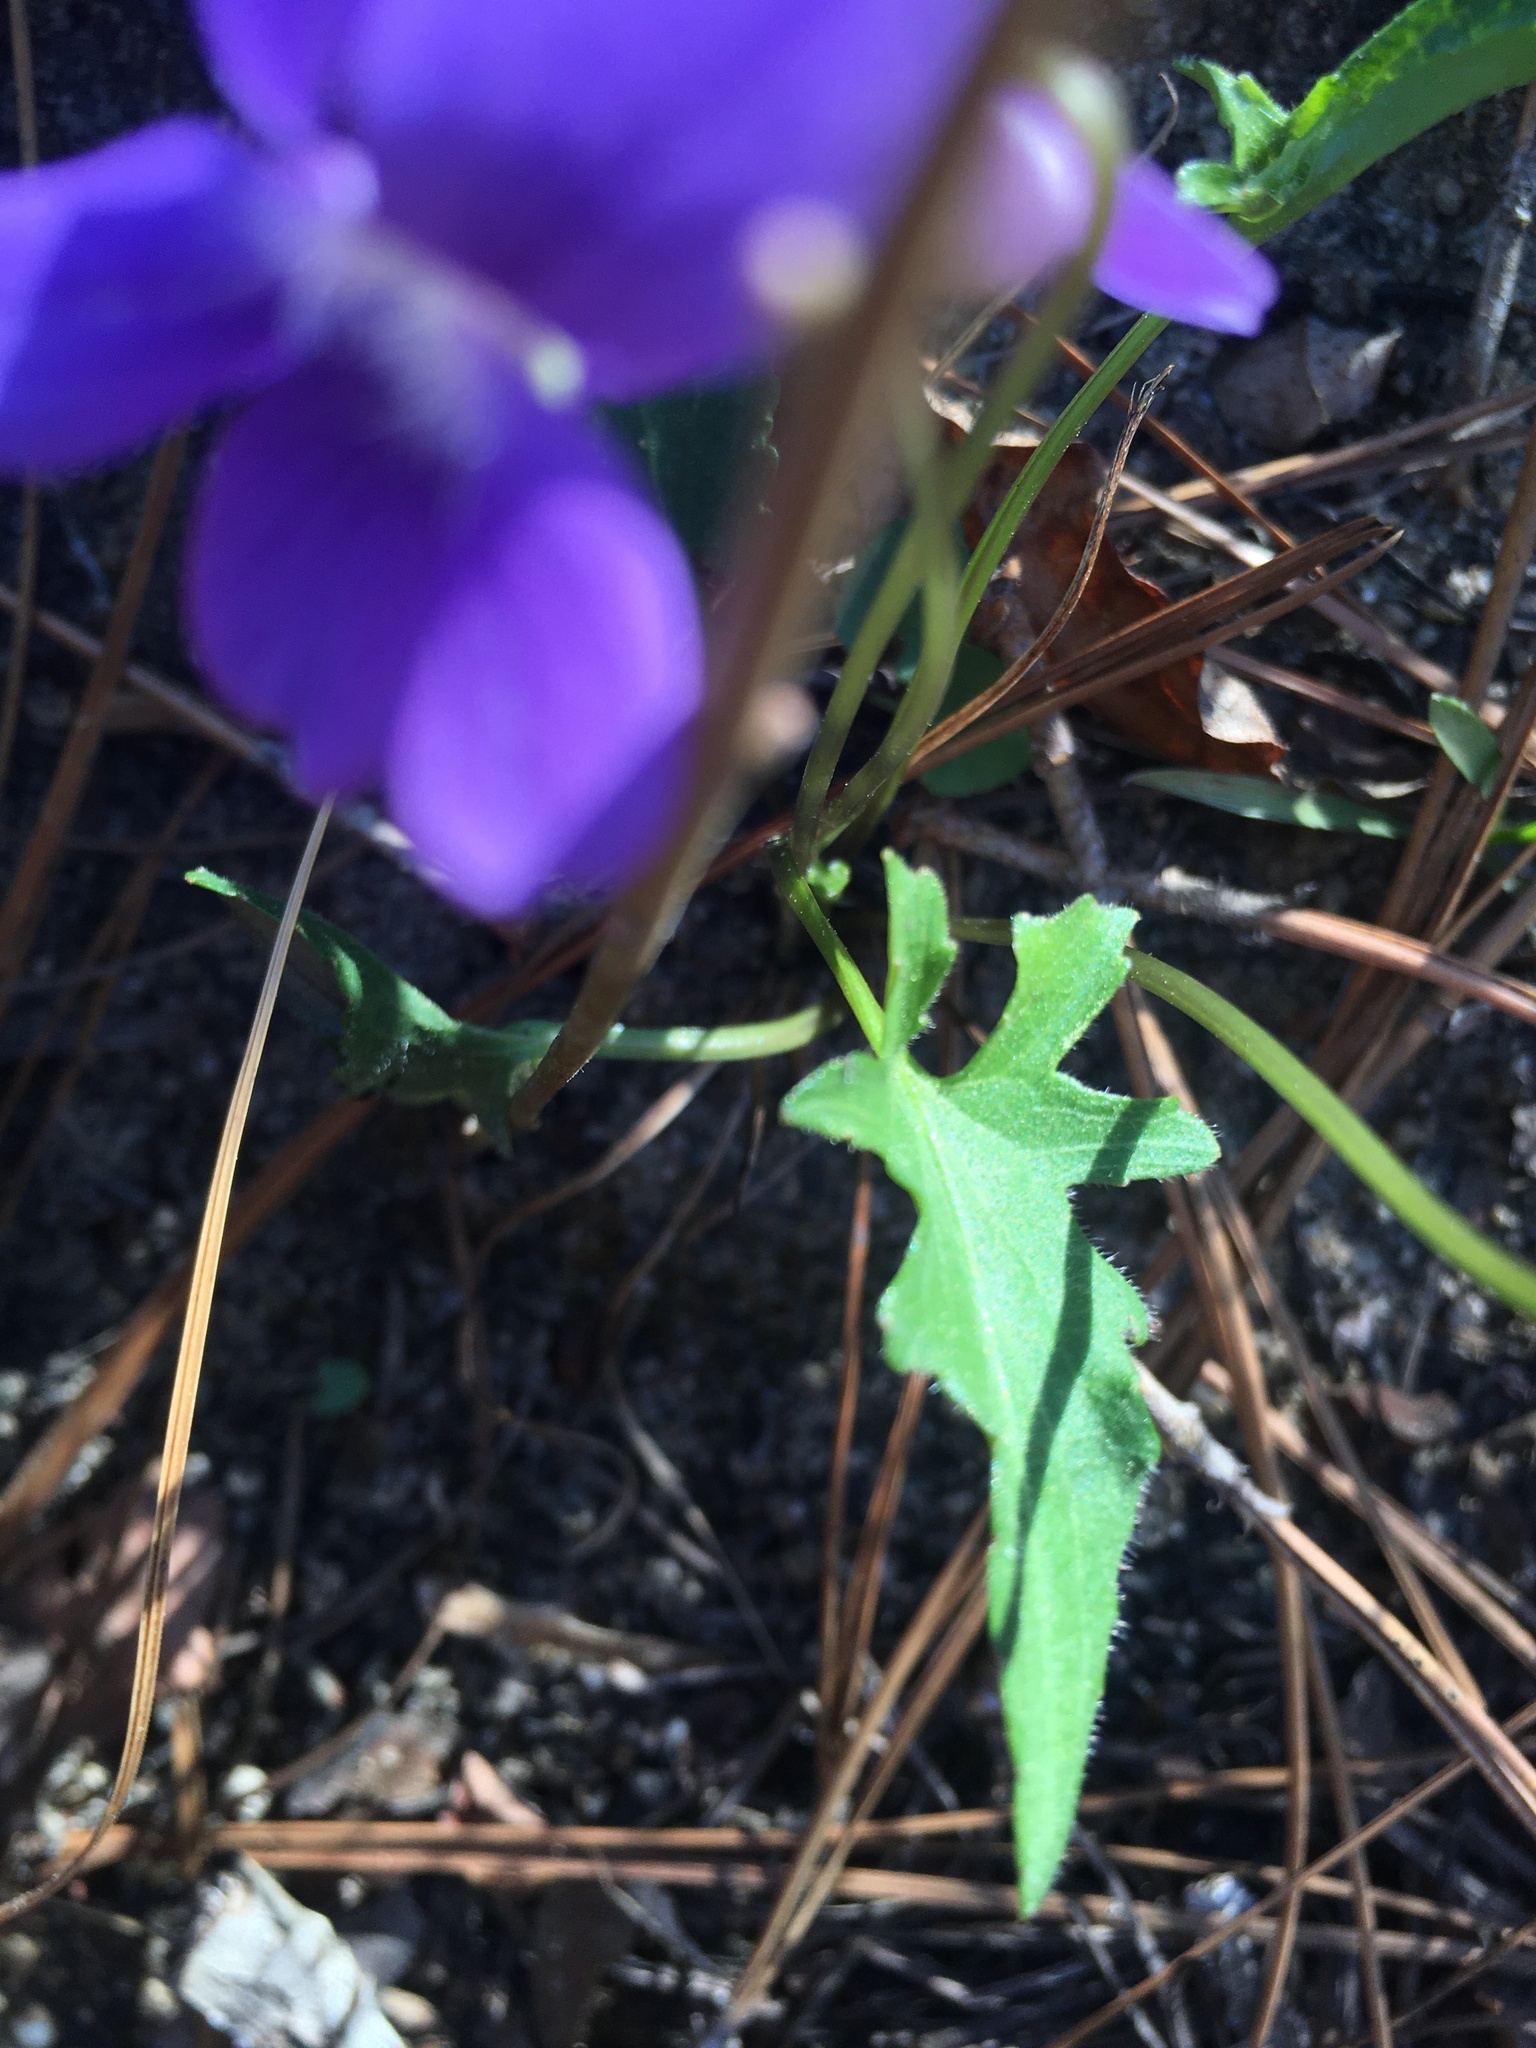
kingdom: Plantae
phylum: Tracheophyta
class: Magnoliopsida
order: Malpighiales
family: Violaceae
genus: Viola
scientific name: Viola emarginata
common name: Triangle-leaved violet
